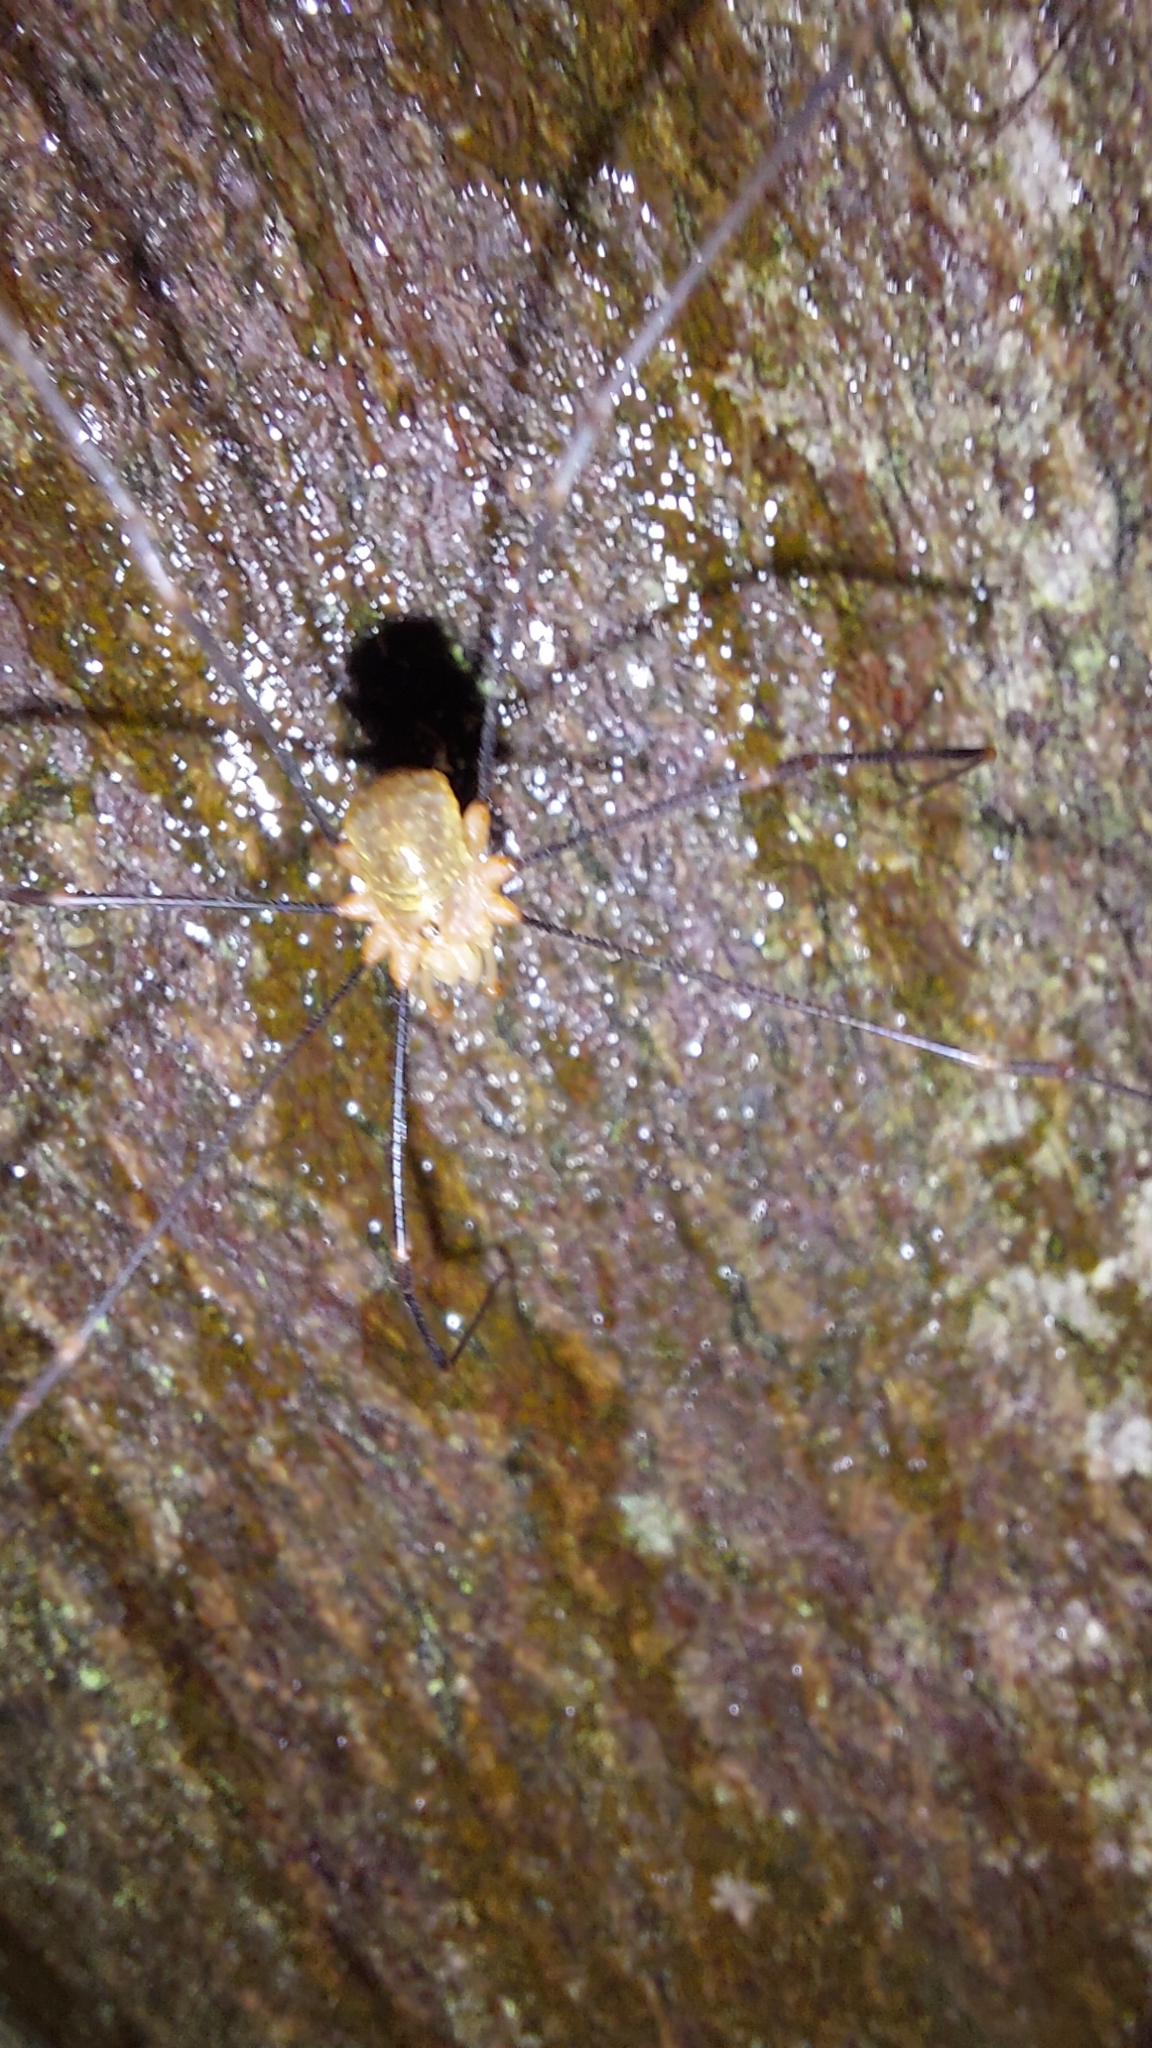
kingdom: Animalia
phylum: Arthropoda
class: Arachnida
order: Opiliones
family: Phalangiidae
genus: Opilio
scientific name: Opilio canestrinii
